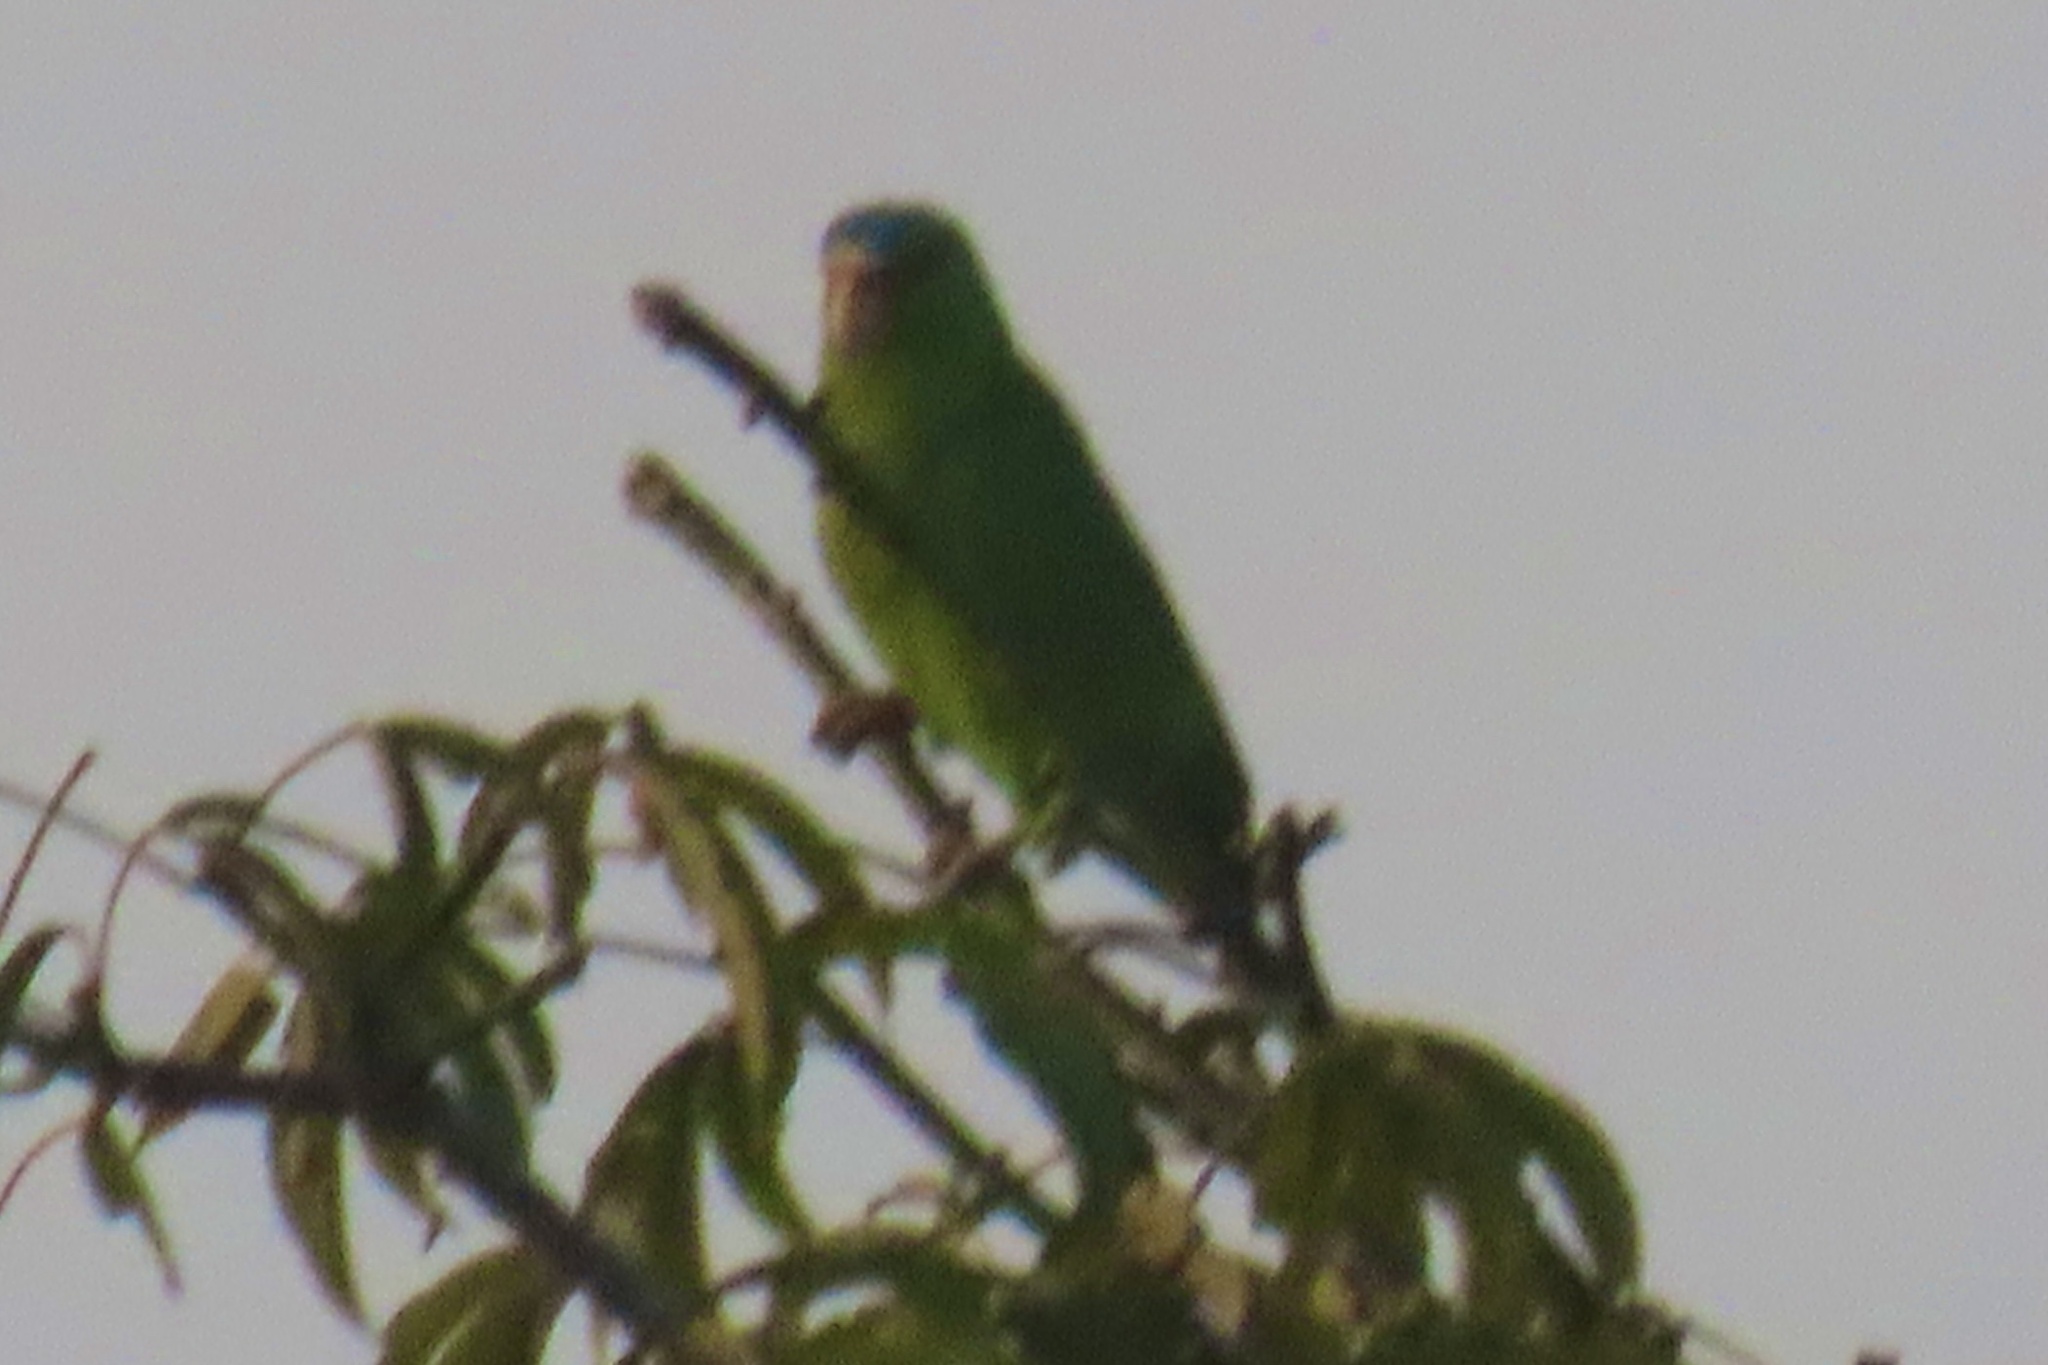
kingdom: Animalia
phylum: Chordata
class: Aves
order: Psittaciformes
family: Psittacidae
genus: Amazona
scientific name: Amazona albifrons
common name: White-fronted amazon
